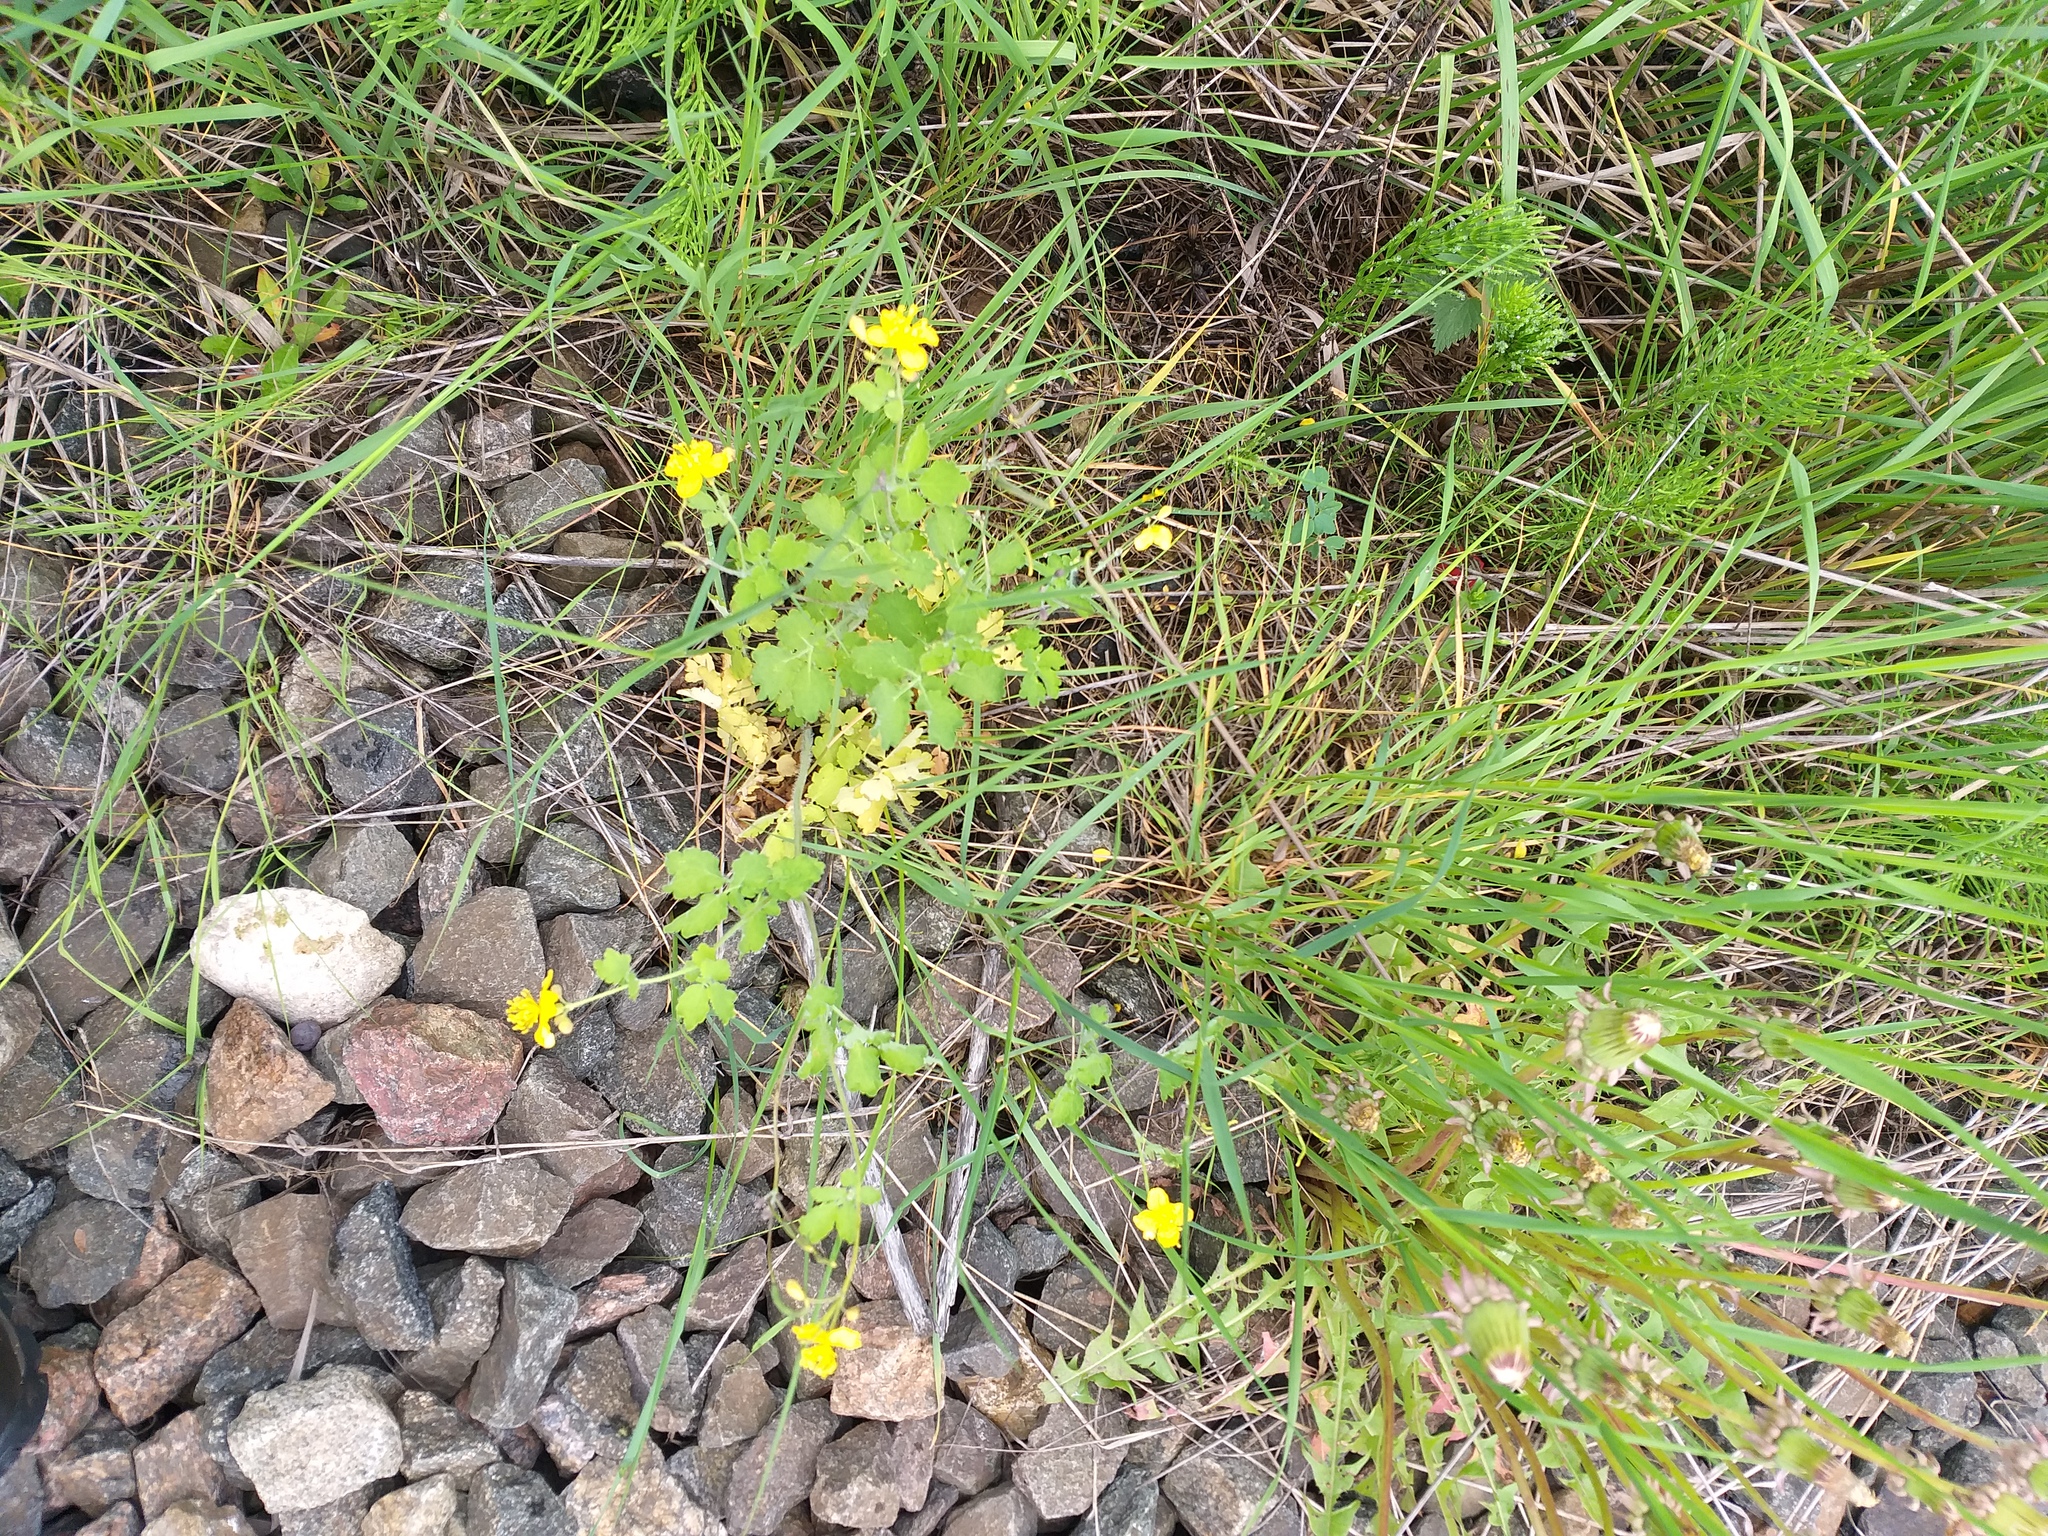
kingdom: Plantae
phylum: Tracheophyta
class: Magnoliopsida
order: Ranunculales
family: Papaveraceae
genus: Chelidonium
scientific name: Chelidonium majus
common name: Greater celandine
